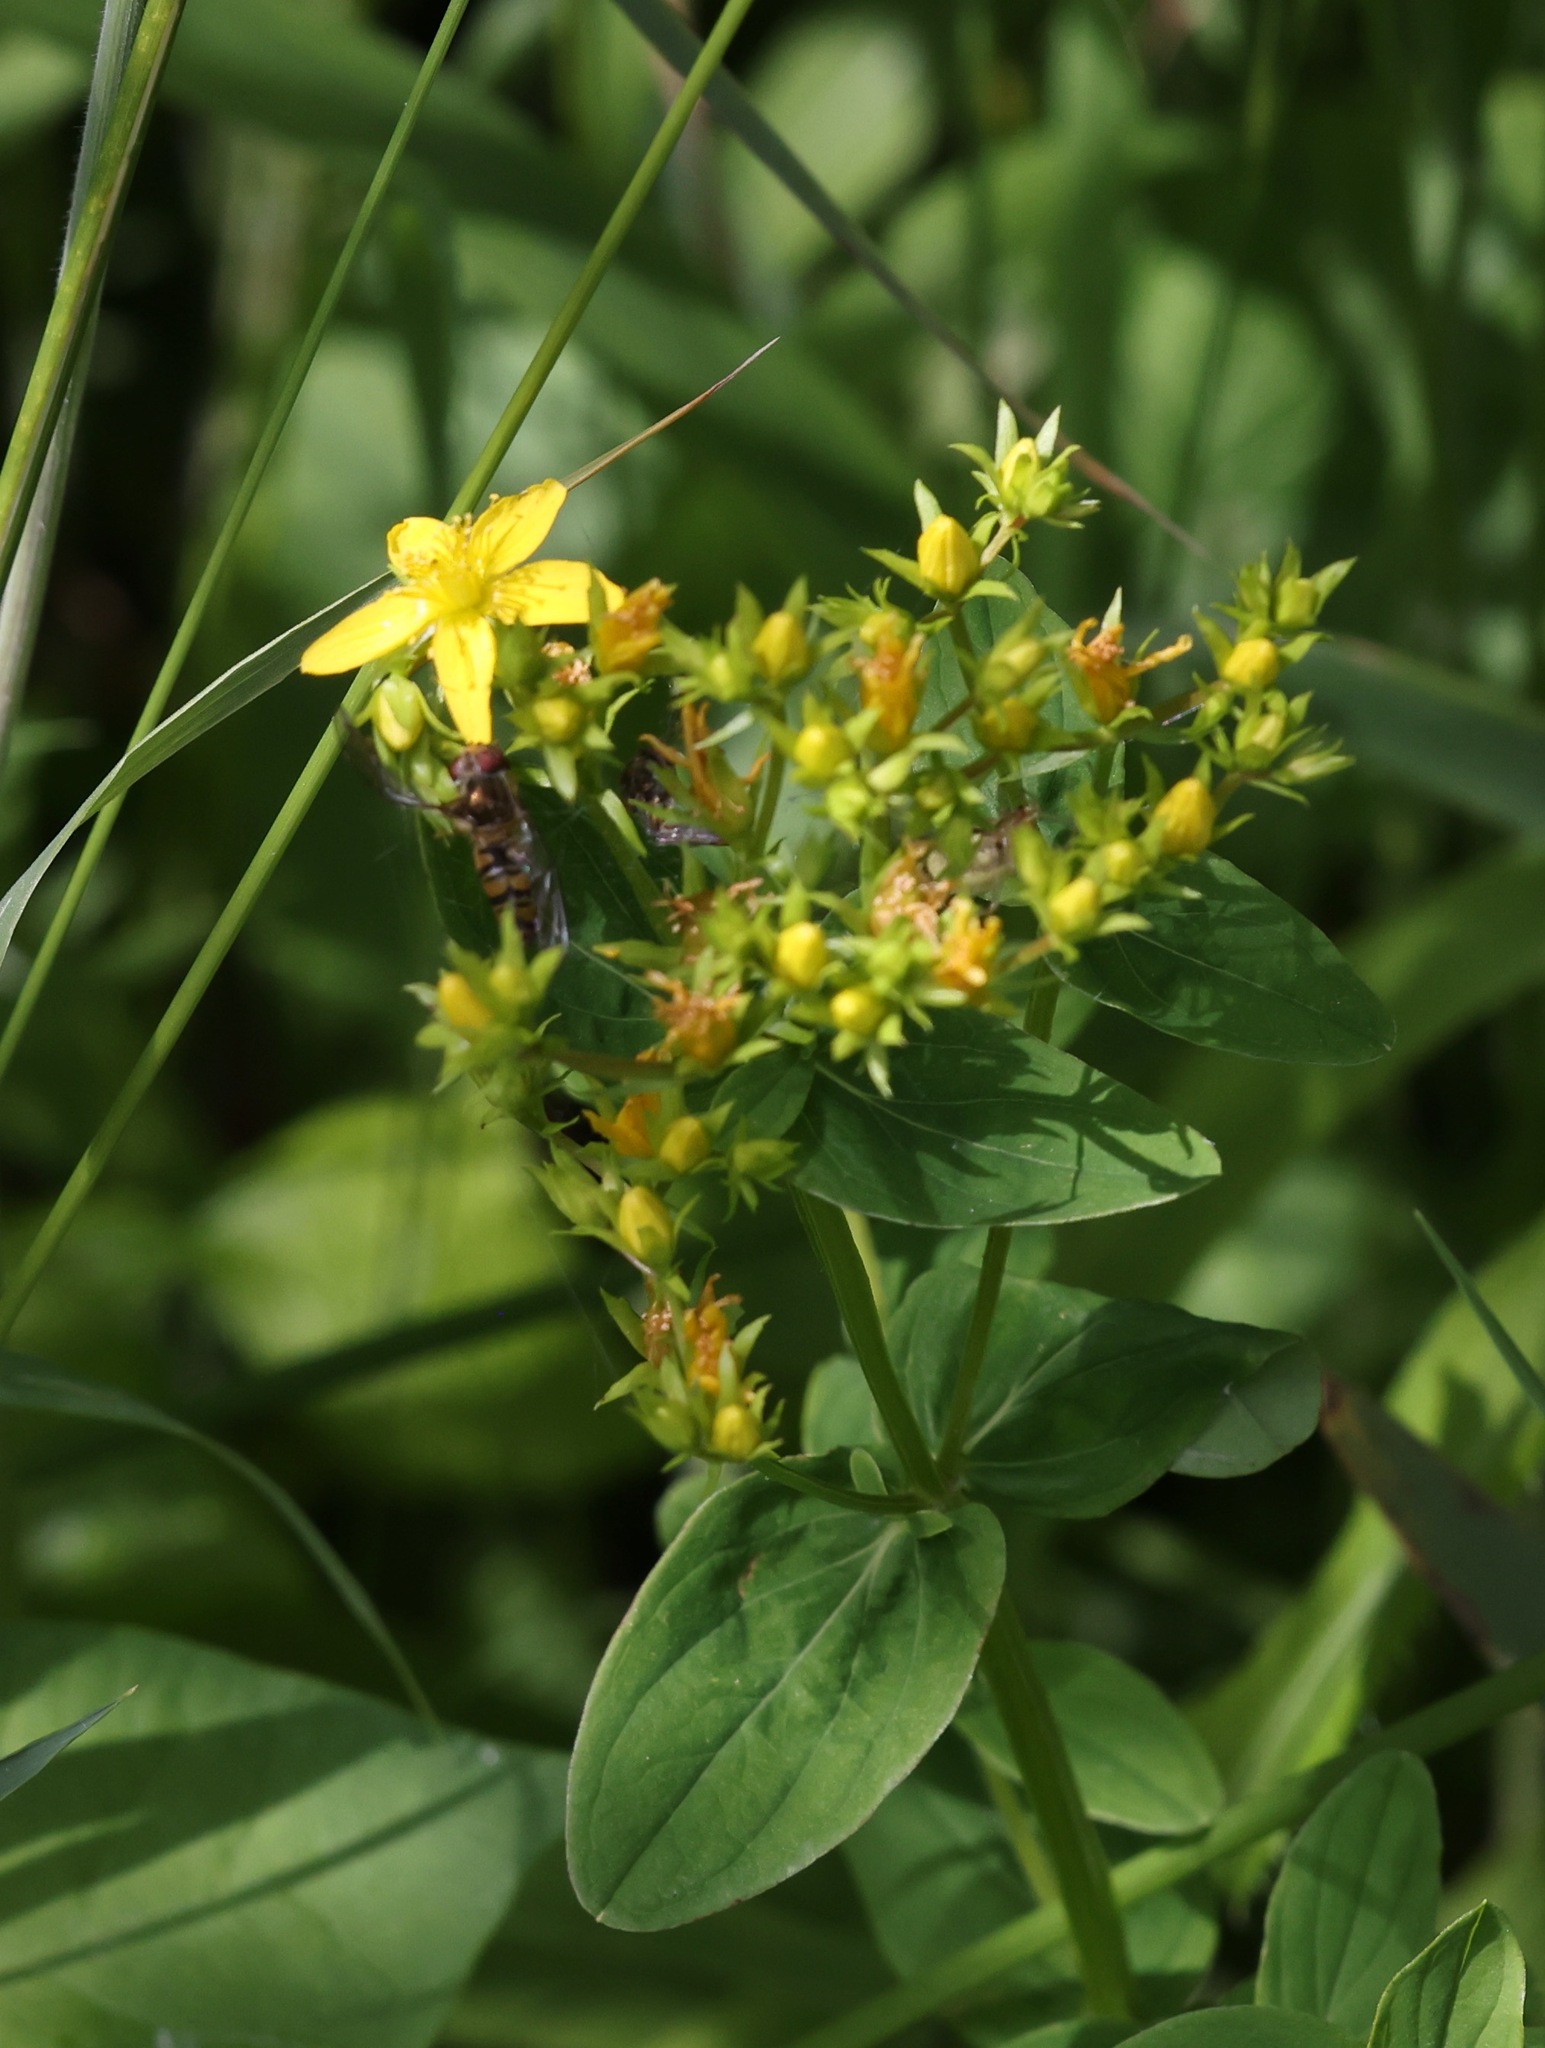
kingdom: Plantae
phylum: Tracheophyta
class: Magnoliopsida
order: Malpighiales
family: Hypericaceae
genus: Hypericum
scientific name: Hypericum tetrapterum
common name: Square-stalked st. john's-wort
